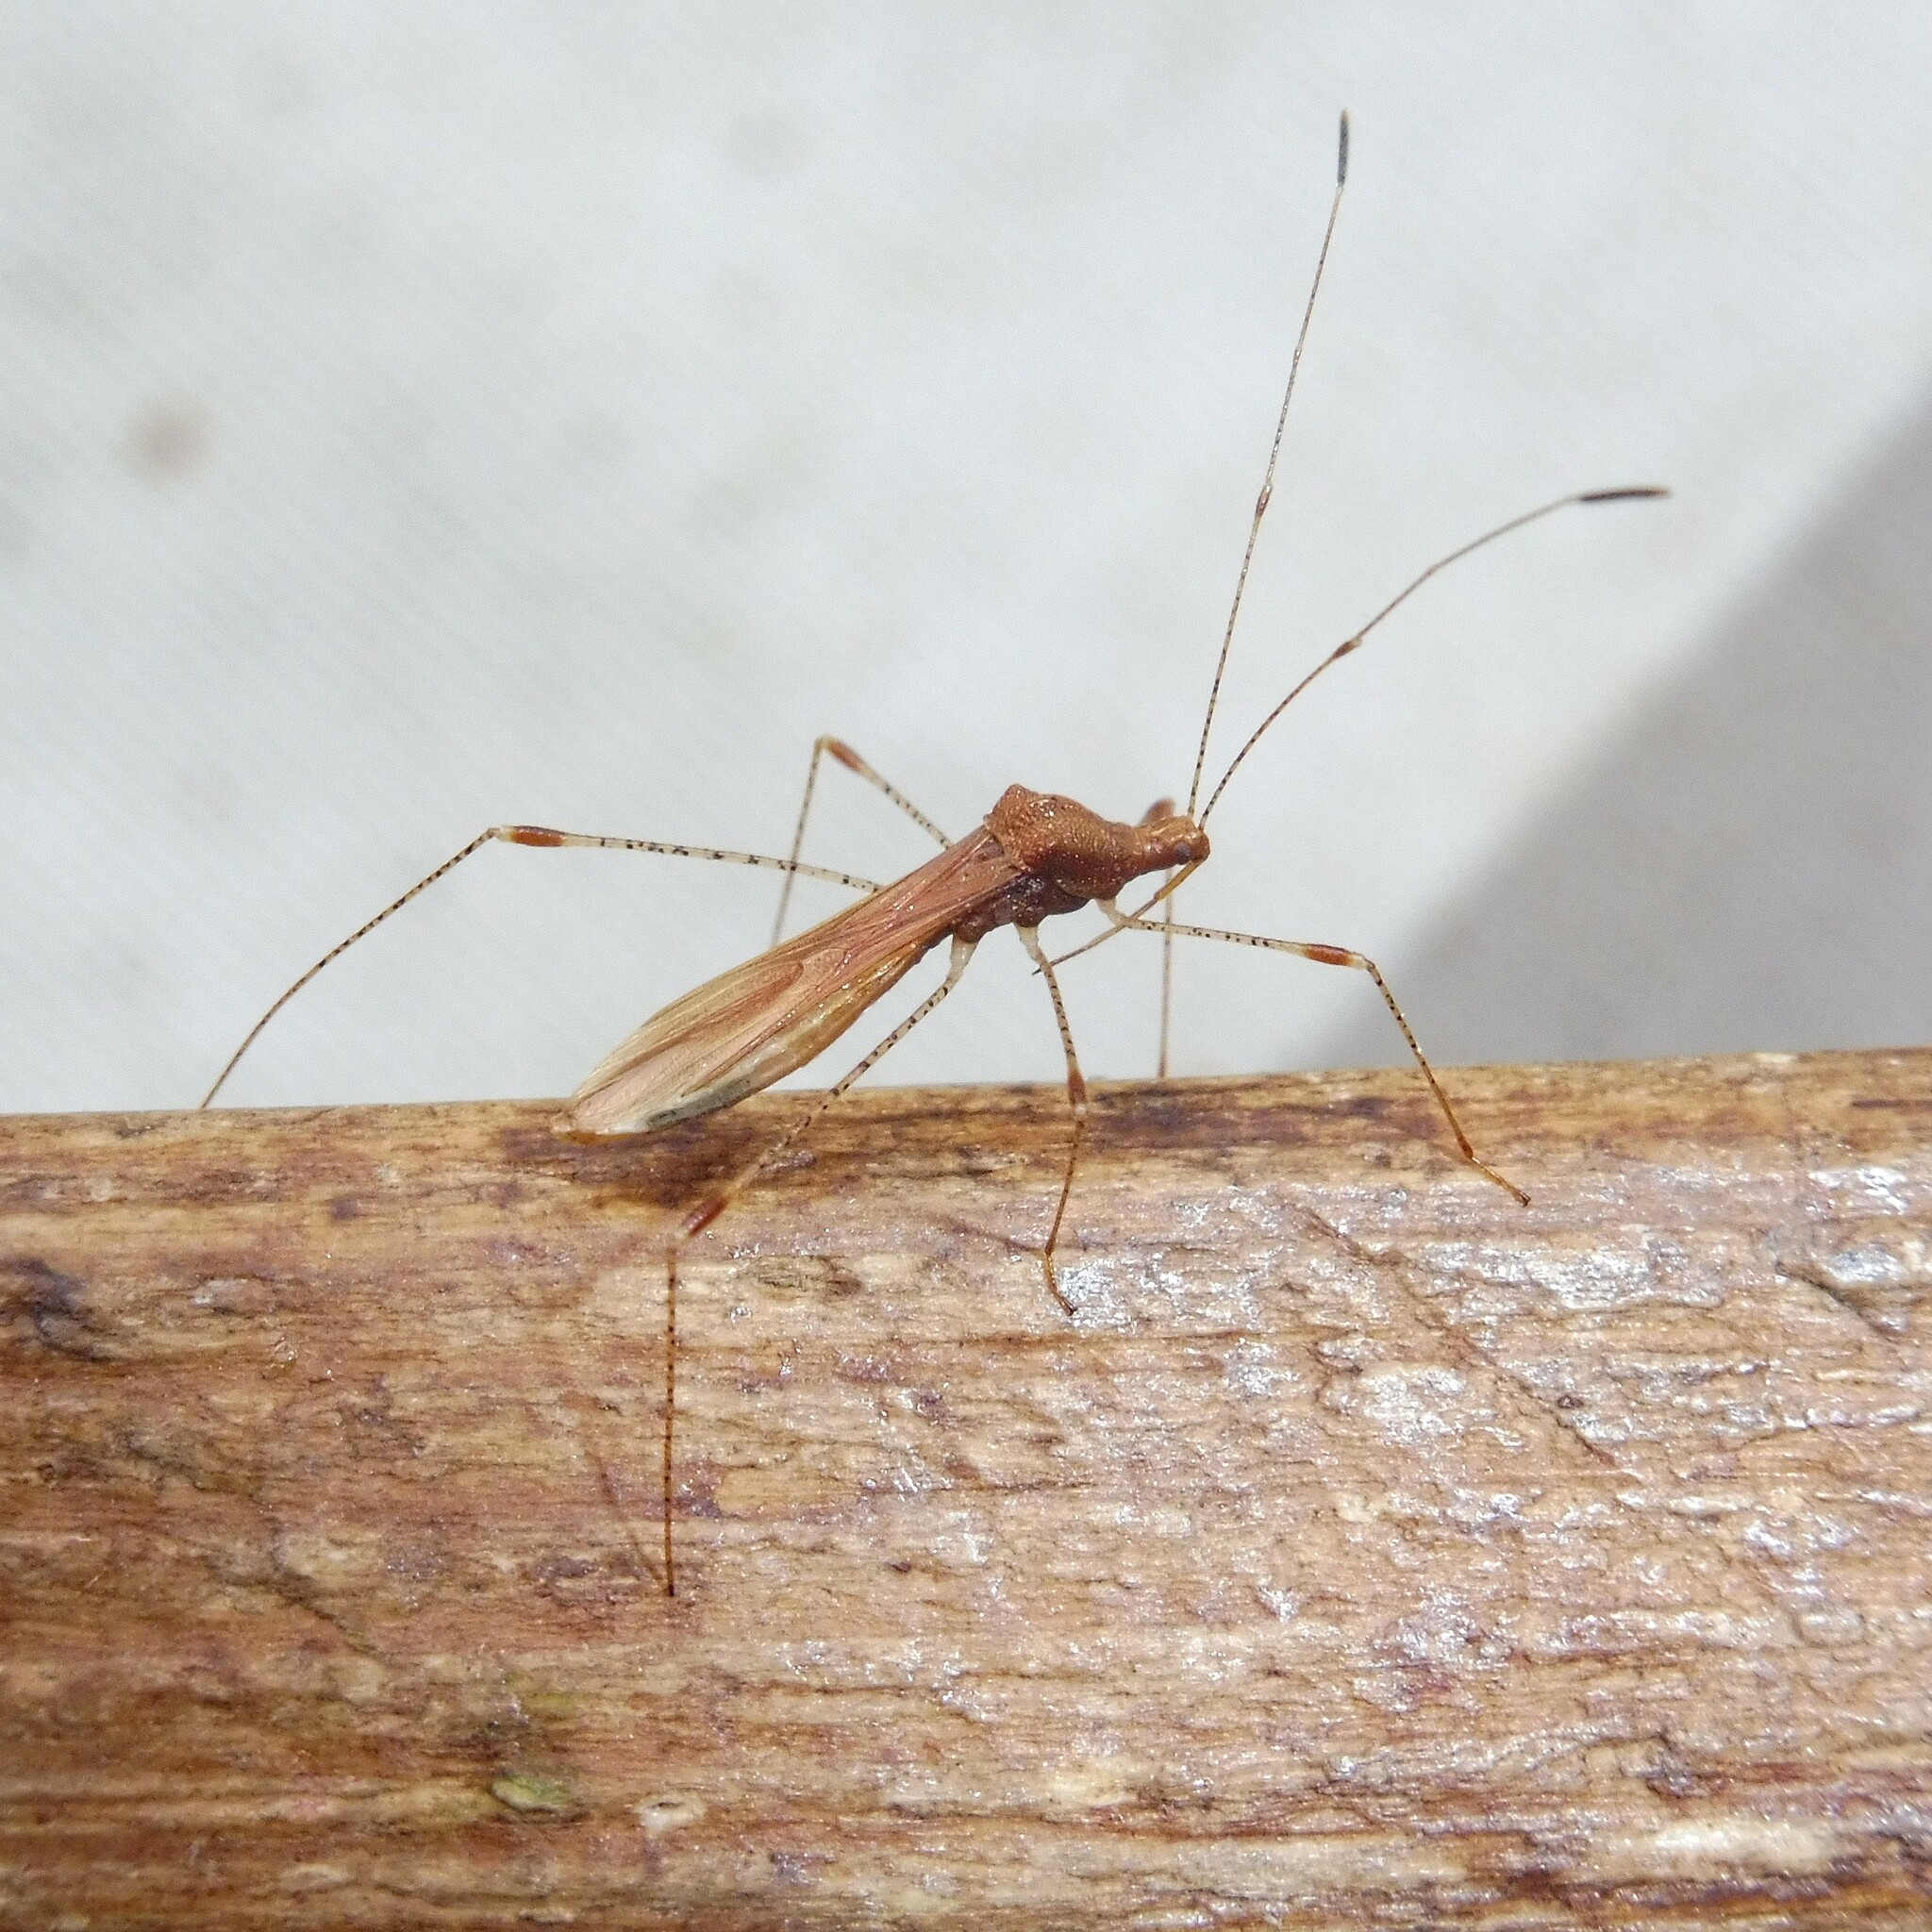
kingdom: Animalia
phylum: Arthropoda
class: Insecta
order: Hemiptera
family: Berytidae
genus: Metatropis
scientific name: Metatropis rufescens
